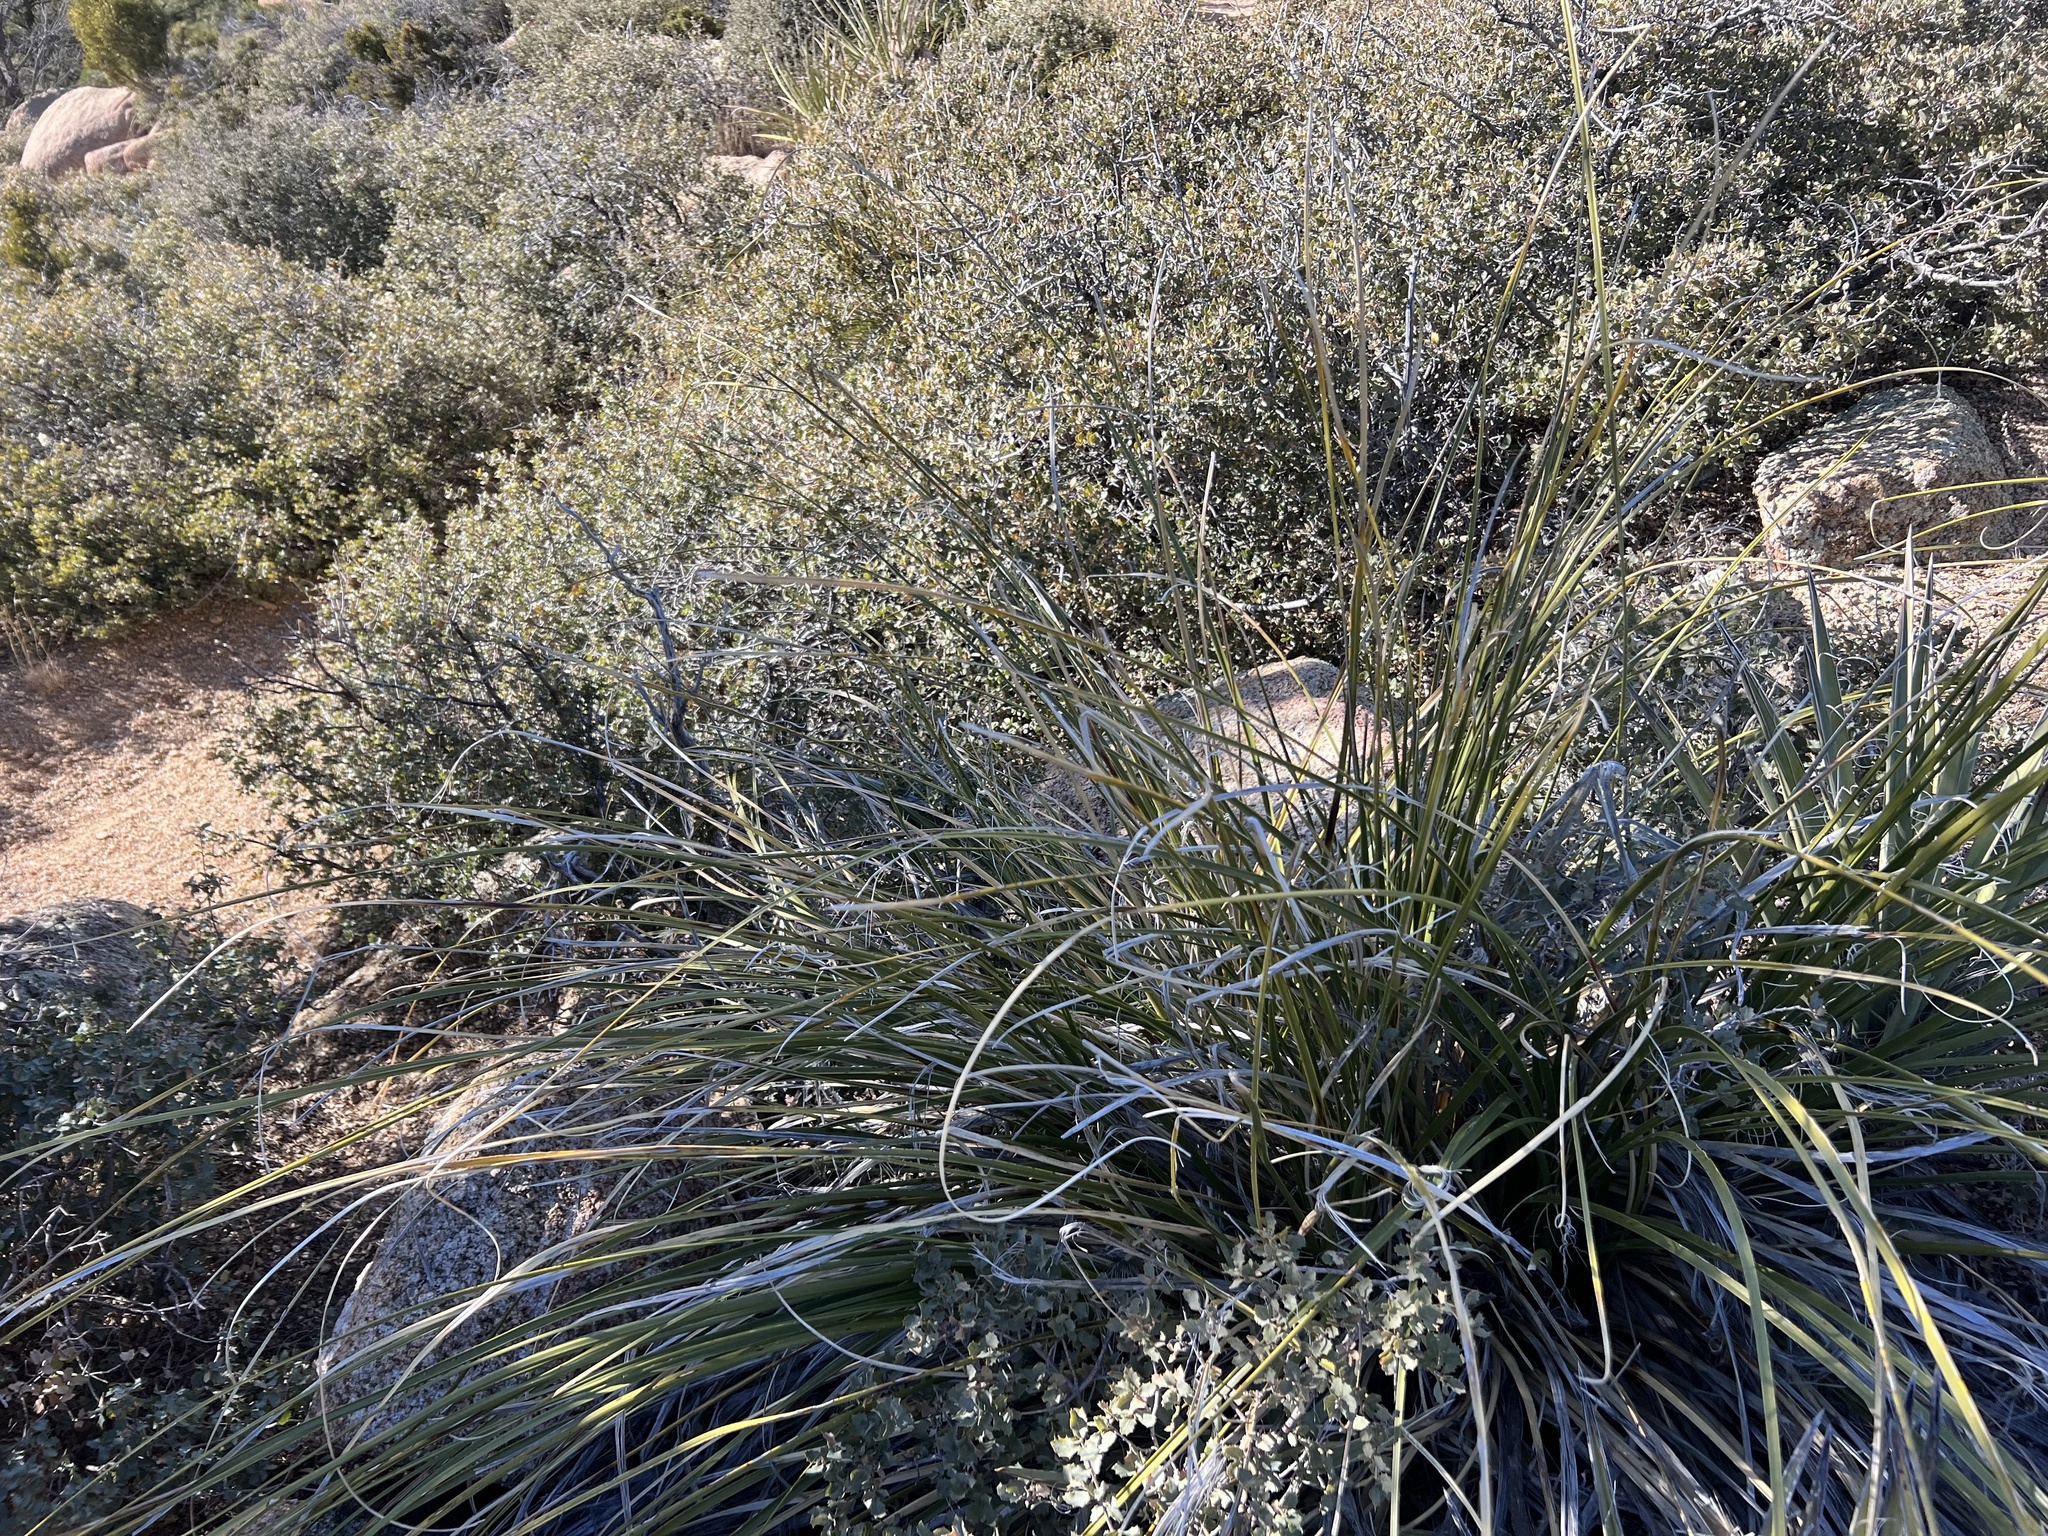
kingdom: Plantae
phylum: Tracheophyta
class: Liliopsida
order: Asparagales
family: Asparagaceae
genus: Nolina
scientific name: Nolina microcarpa
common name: Bear-grass
